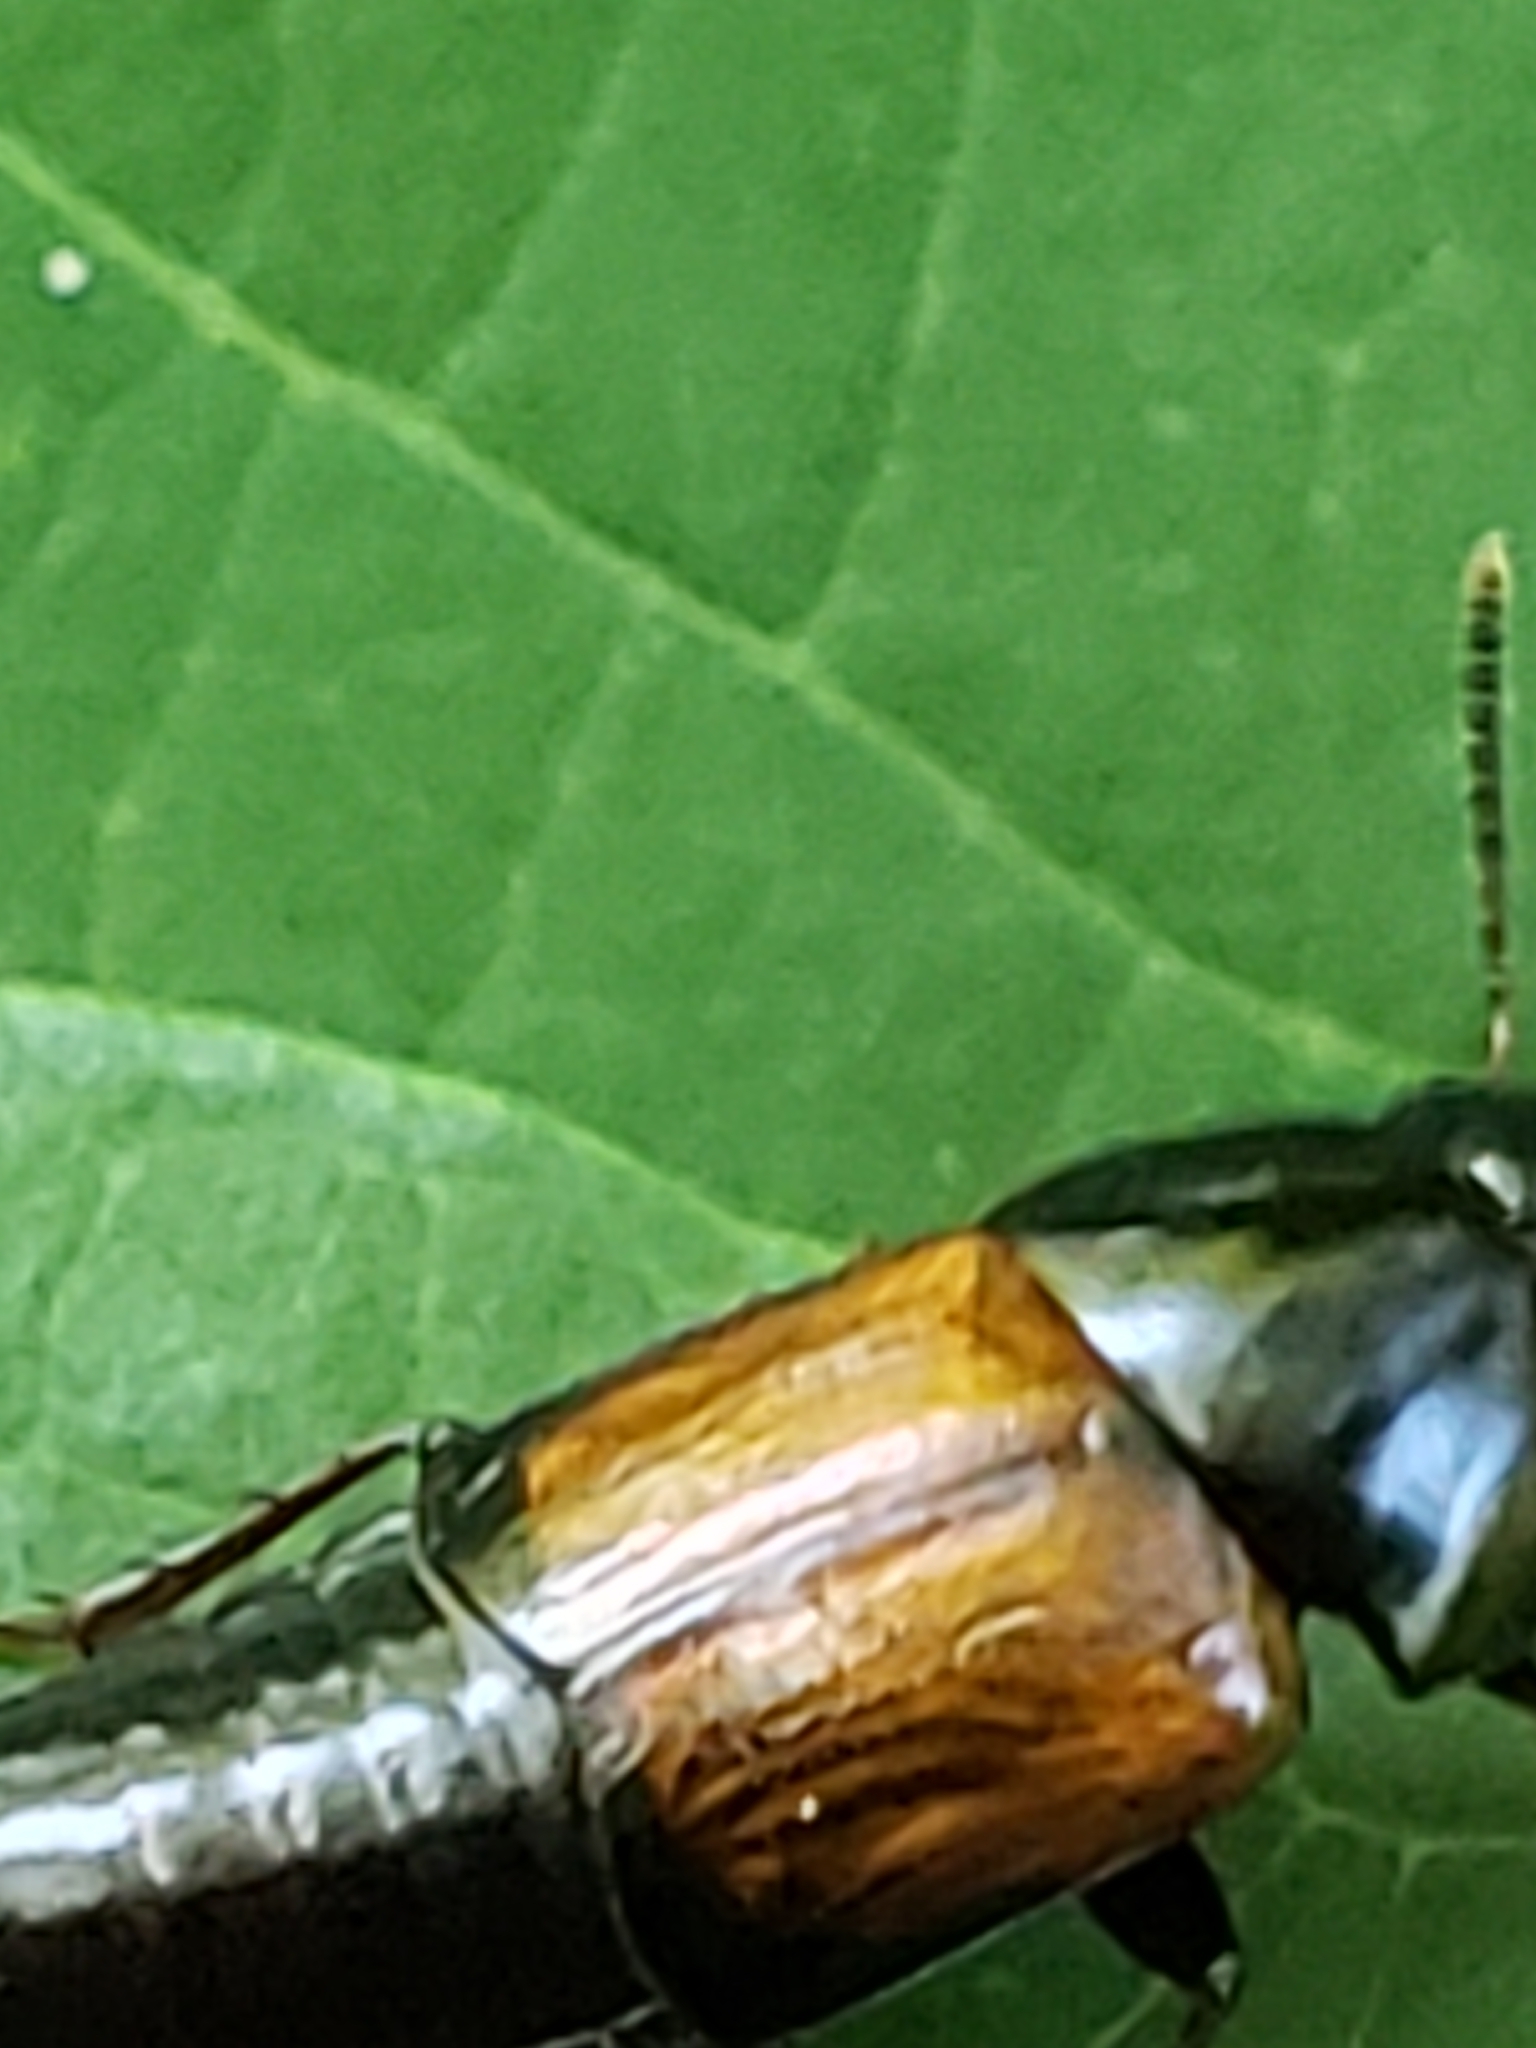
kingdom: Animalia
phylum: Arthropoda
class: Insecta
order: Coleoptera
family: Staphylinidae
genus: Tachinus
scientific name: Tachinus fimbriatus
